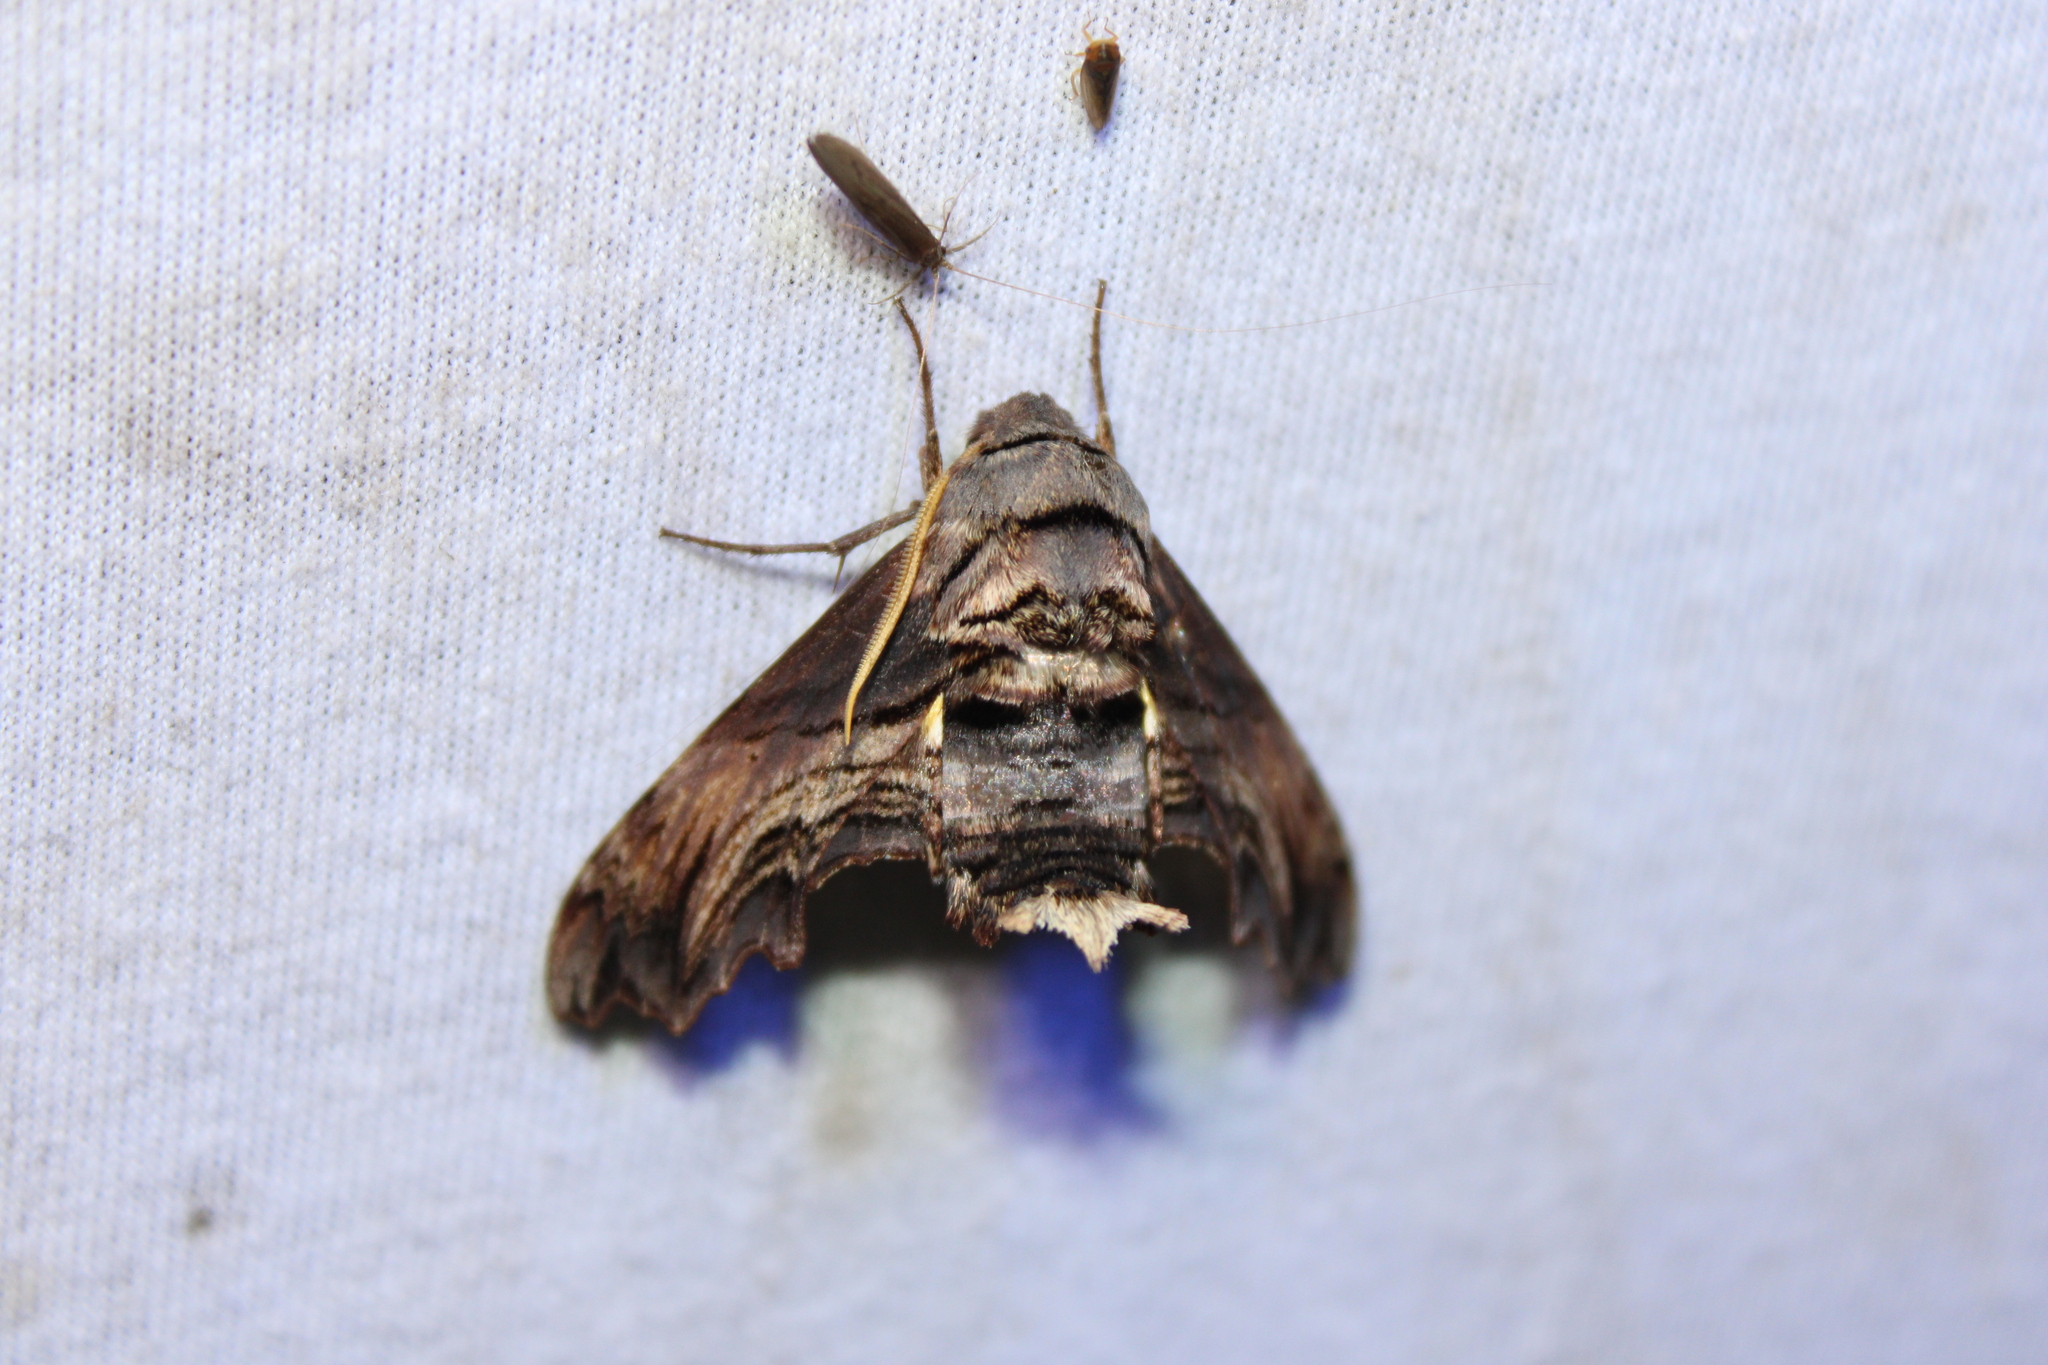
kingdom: Animalia
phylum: Arthropoda
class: Insecta
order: Lepidoptera
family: Sphingidae
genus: Sphecodina
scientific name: Sphecodina abbottii
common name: Abbott's sphinx
